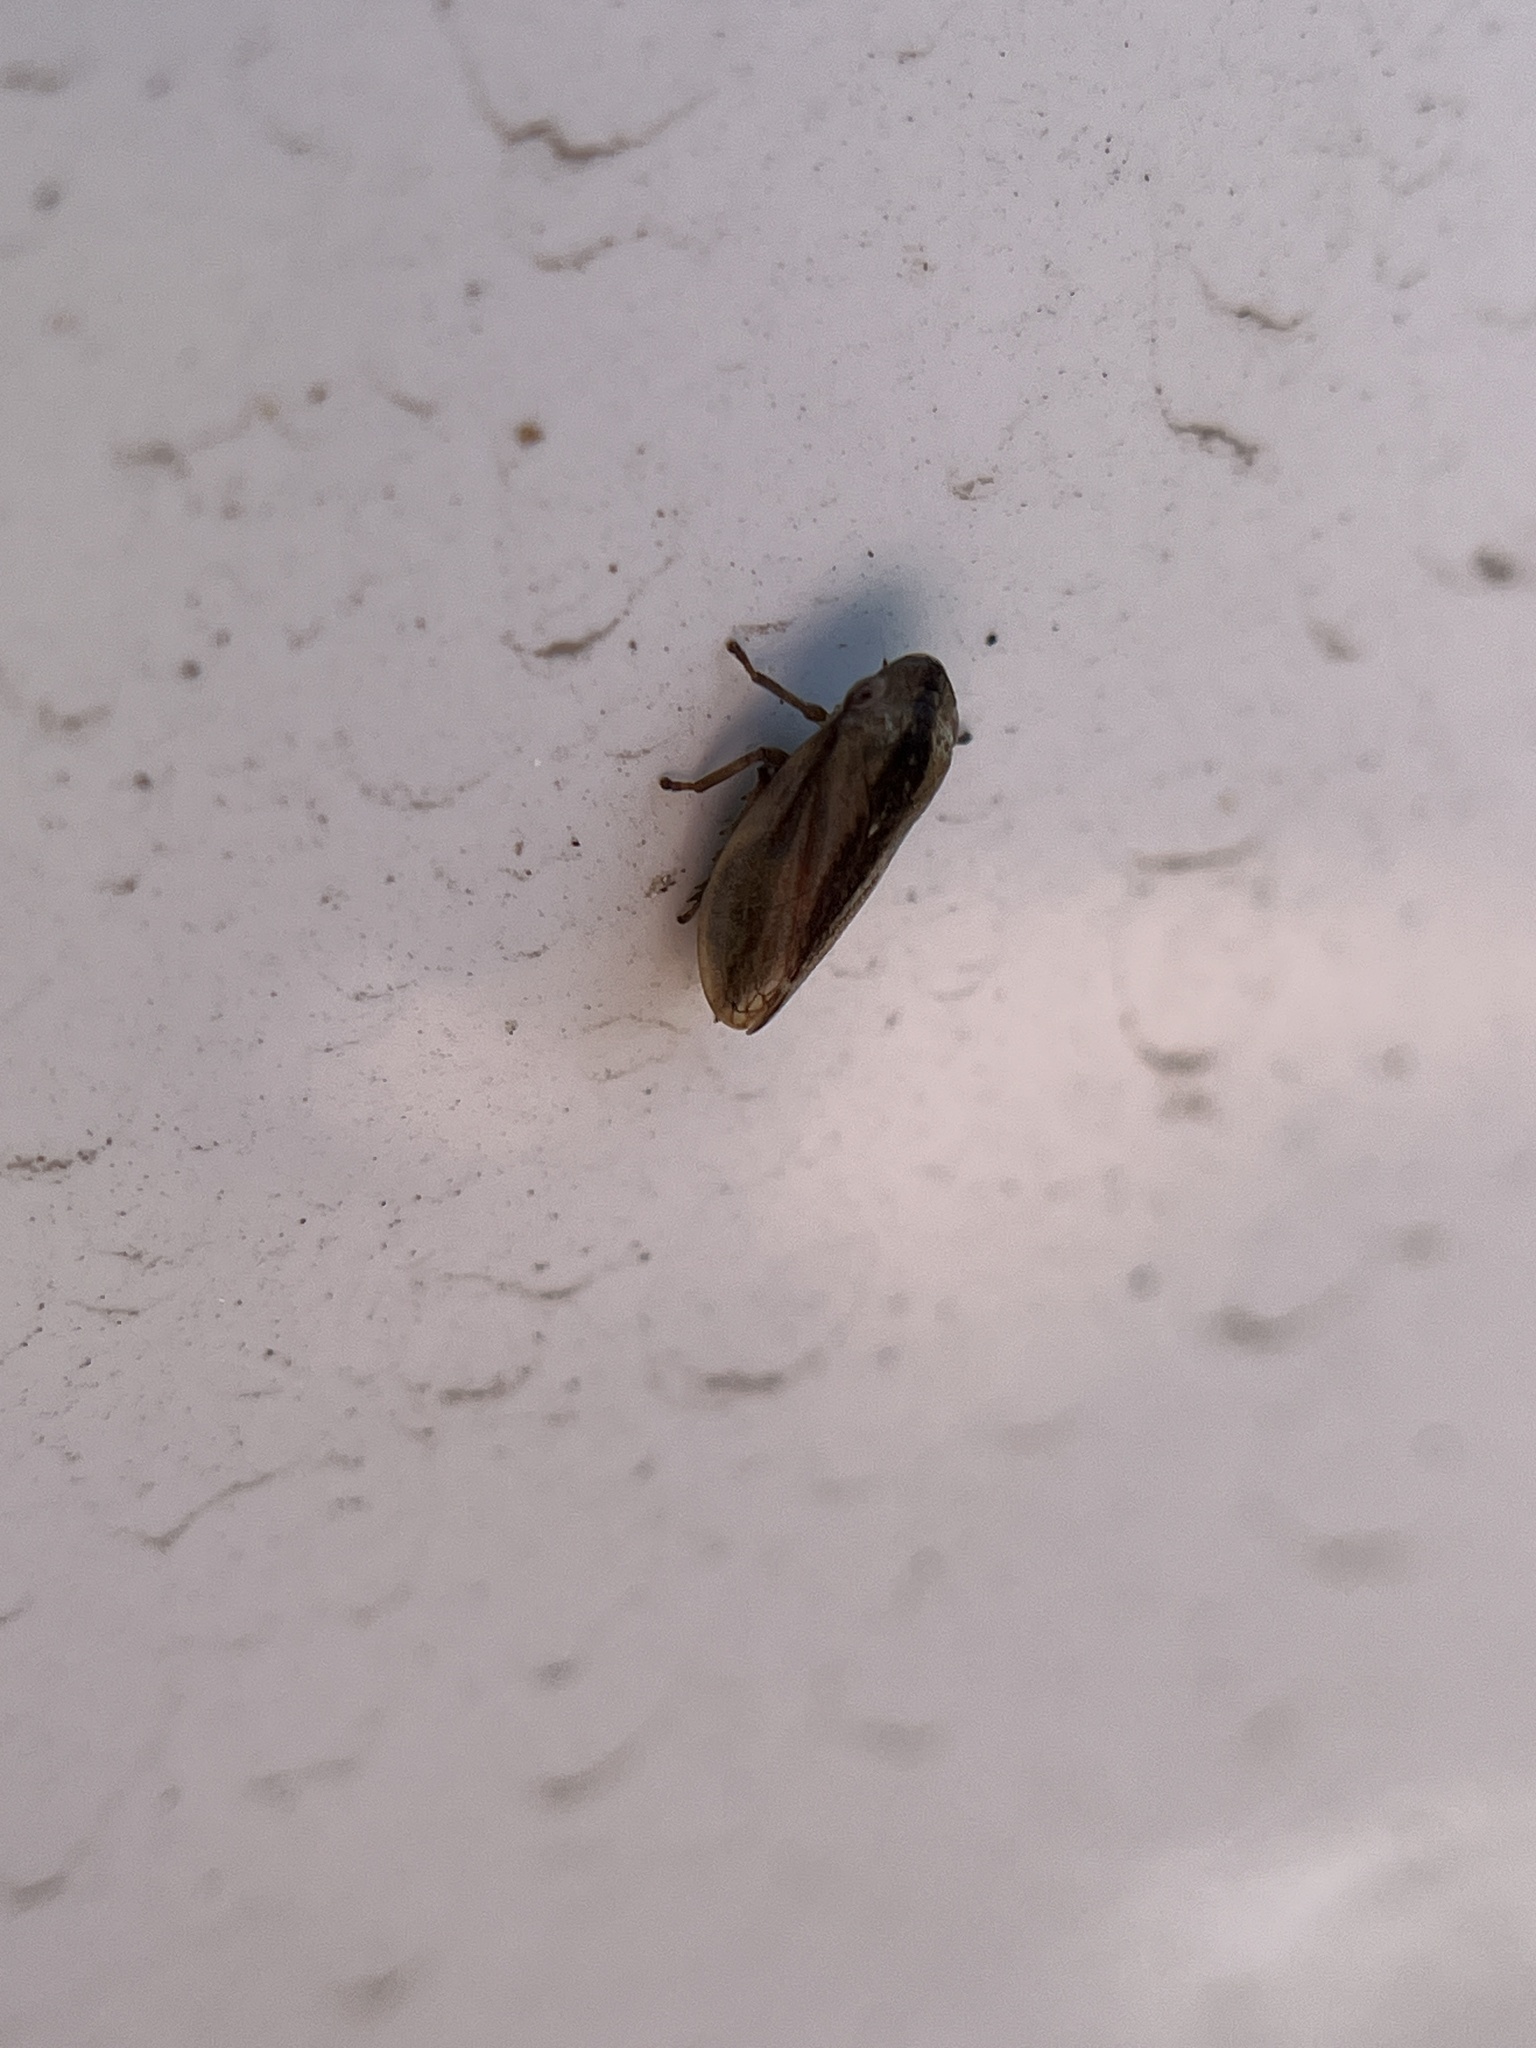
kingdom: Animalia
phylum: Arthropoda
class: Insecta
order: Hemiptera
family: Aphrophoridae
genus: Philaenus
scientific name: Philaenus spumarius
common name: Meadow spittlebug
